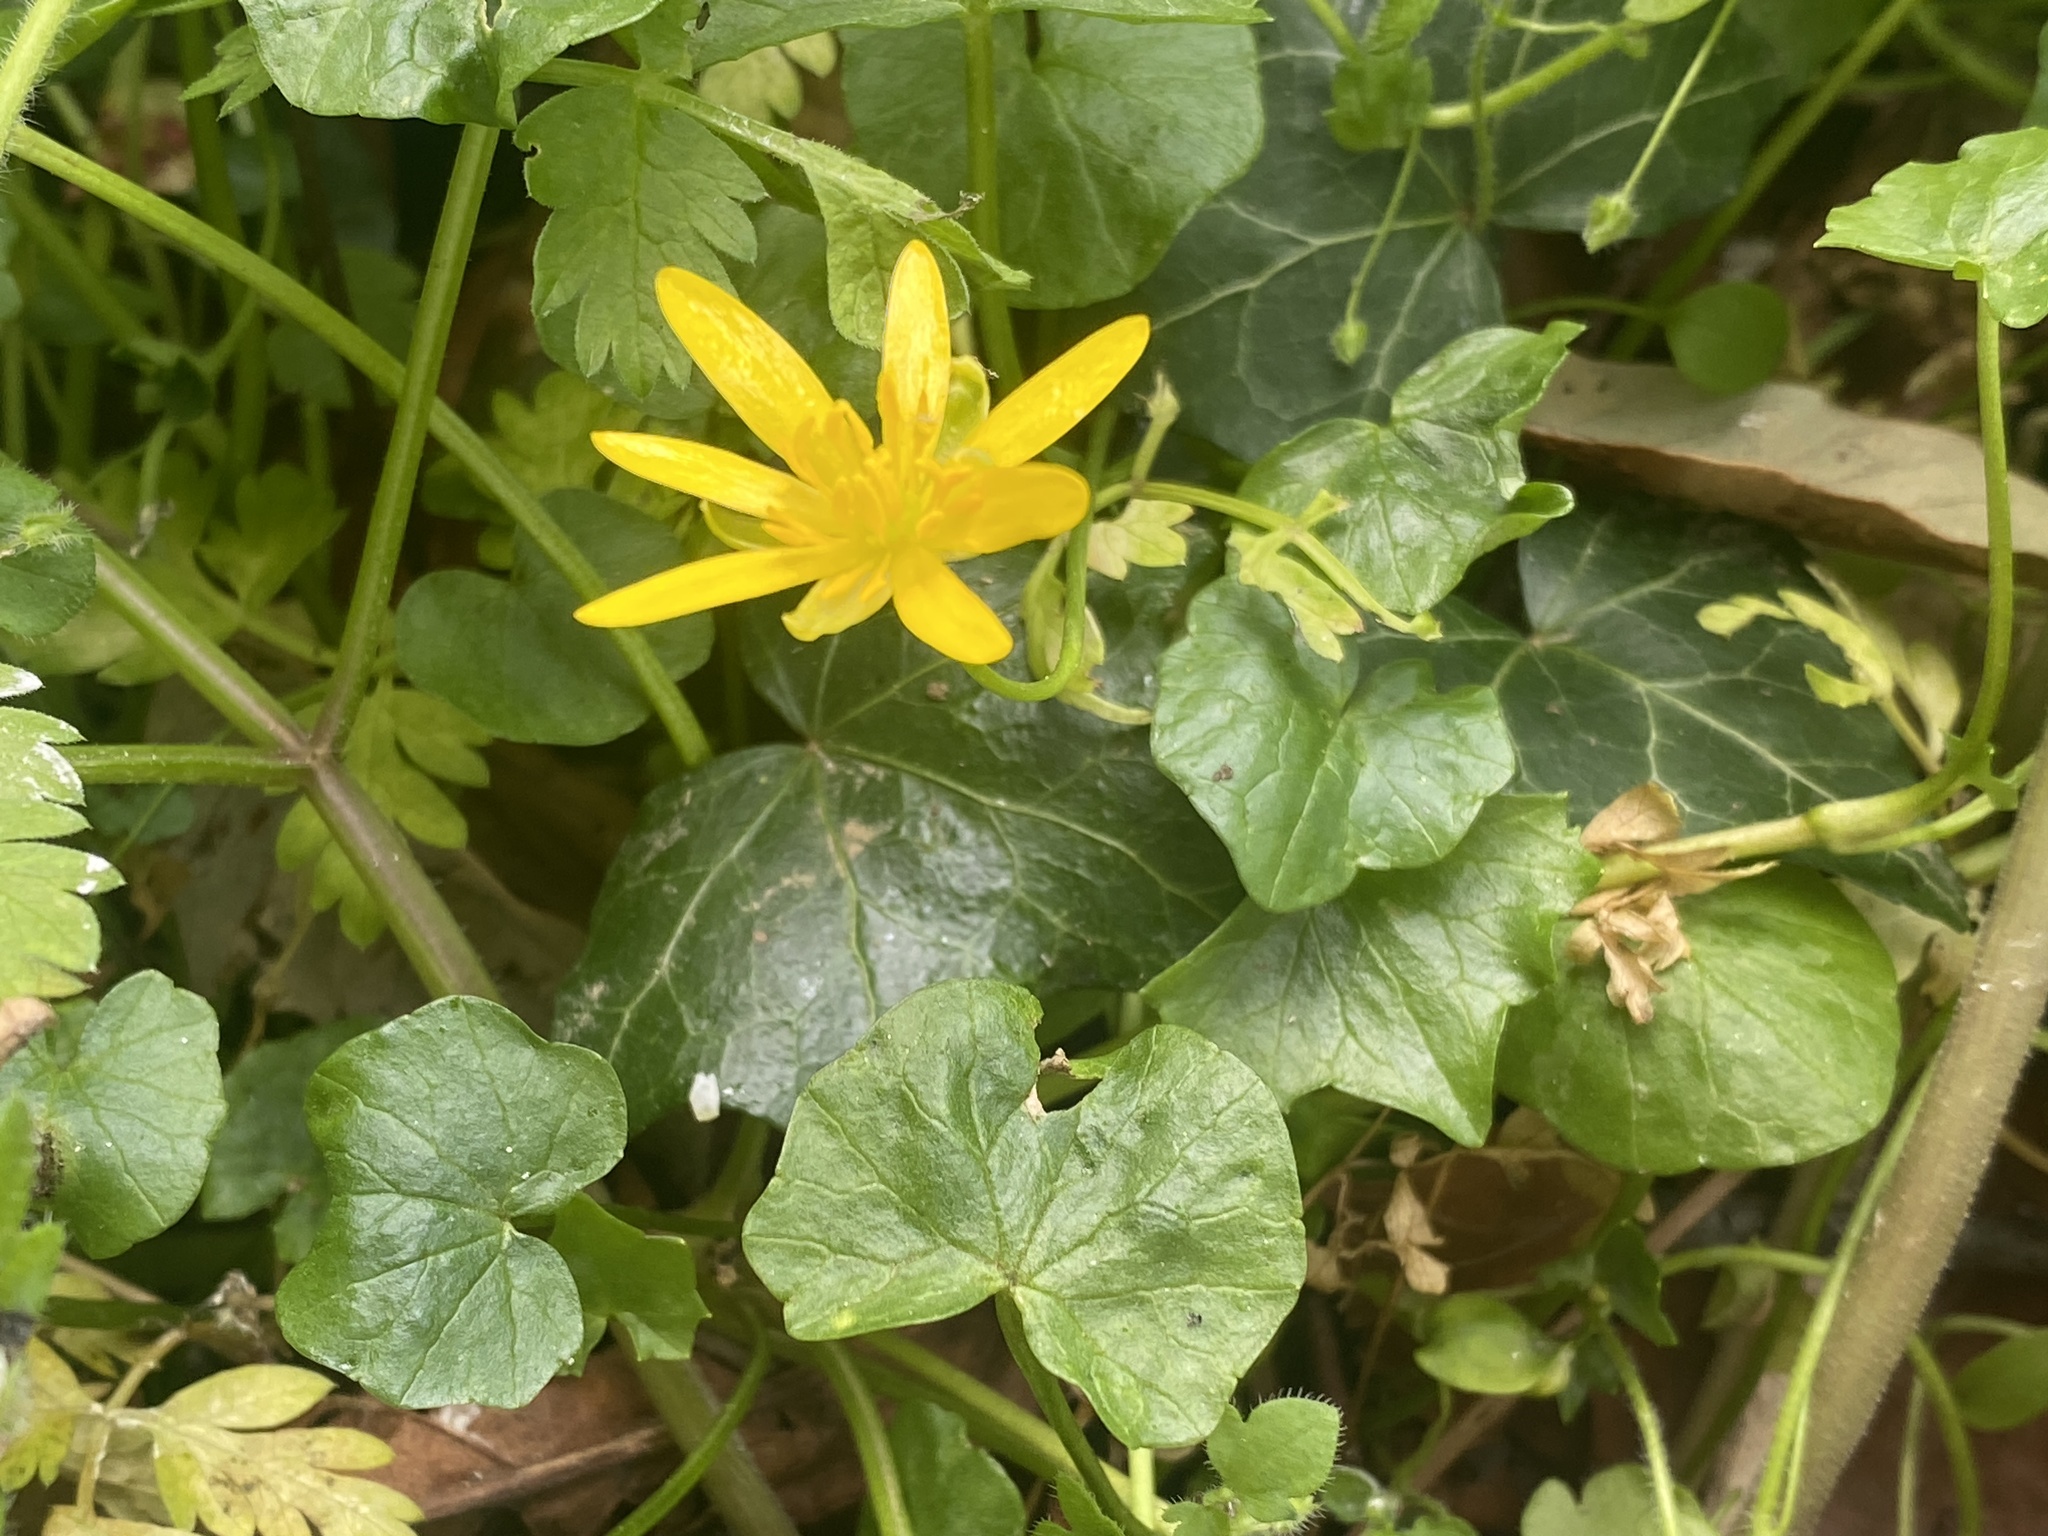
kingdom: Plantae
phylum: Tracheophyta
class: Magnoliopsida
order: Ranunculales
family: Ranunculaceae
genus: Ficaria
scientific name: Ficaria verna
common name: Lesser celandine
